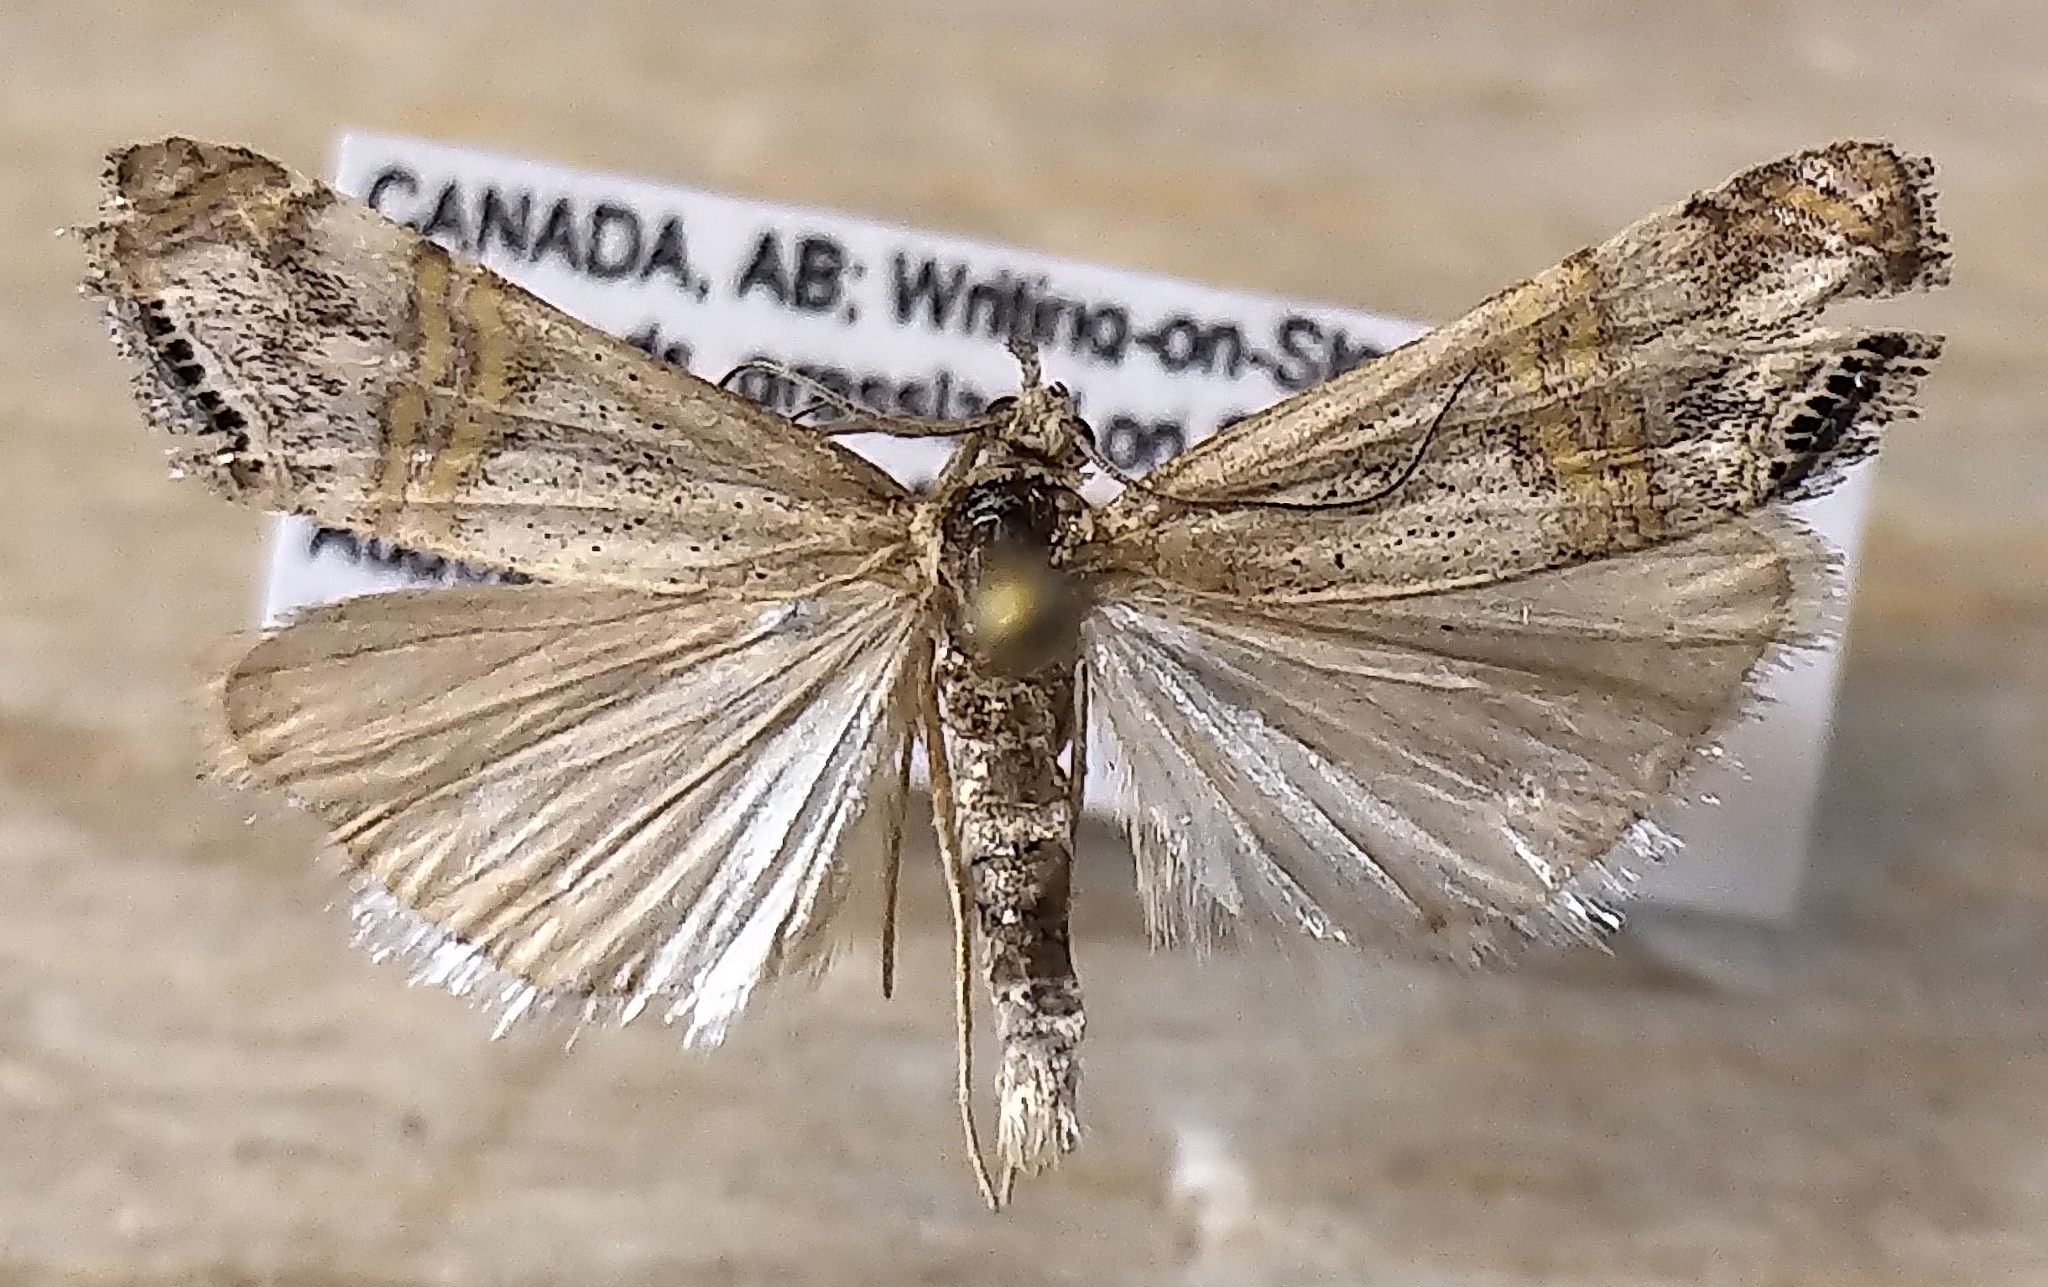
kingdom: Animalia
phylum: Arthropoda
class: Insecta
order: Lepidoptera
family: Crambidae
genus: Euchromius
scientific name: Euchromius ocellea
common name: Necklace veneer moth
